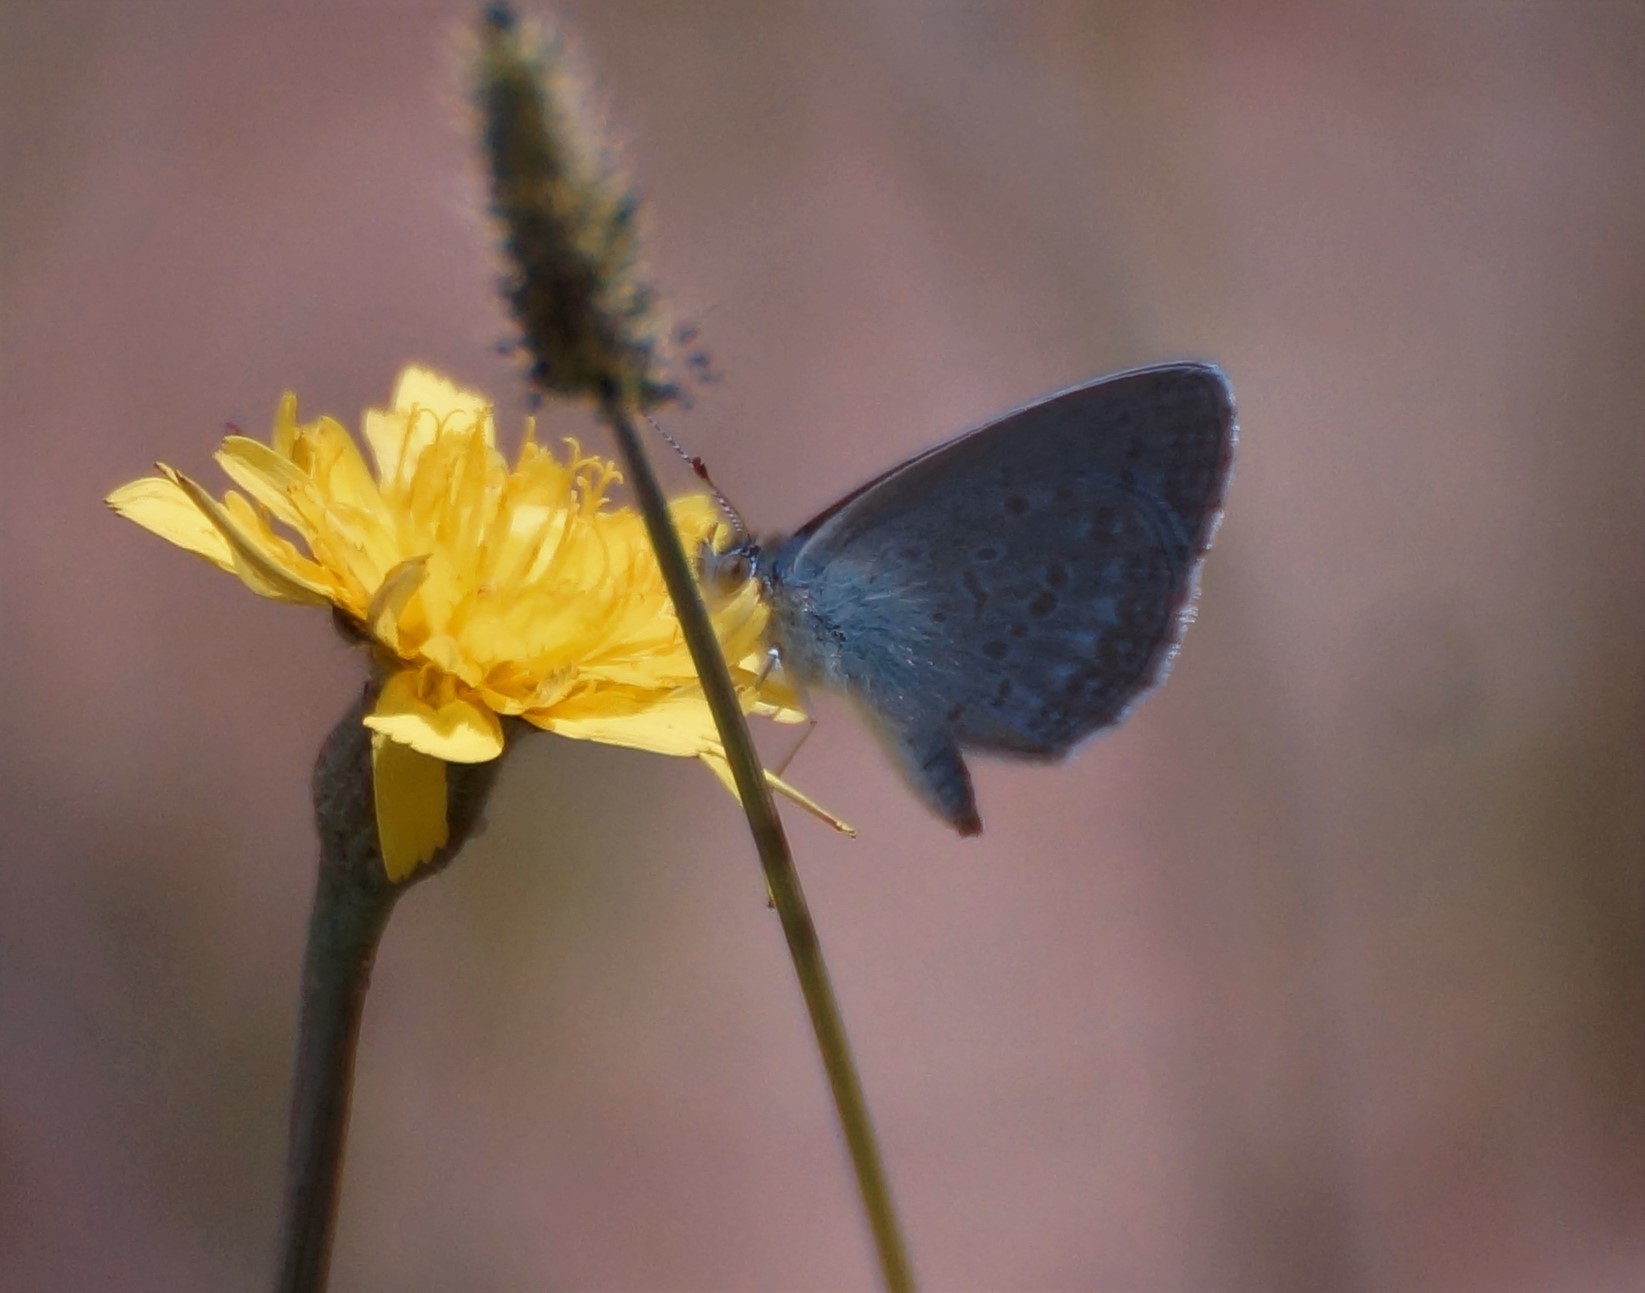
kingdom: Animalia
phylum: Arthropoda
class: Insecta
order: Lepidoptera
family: Lycaenidae
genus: Zizina
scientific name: Zizina labradus
